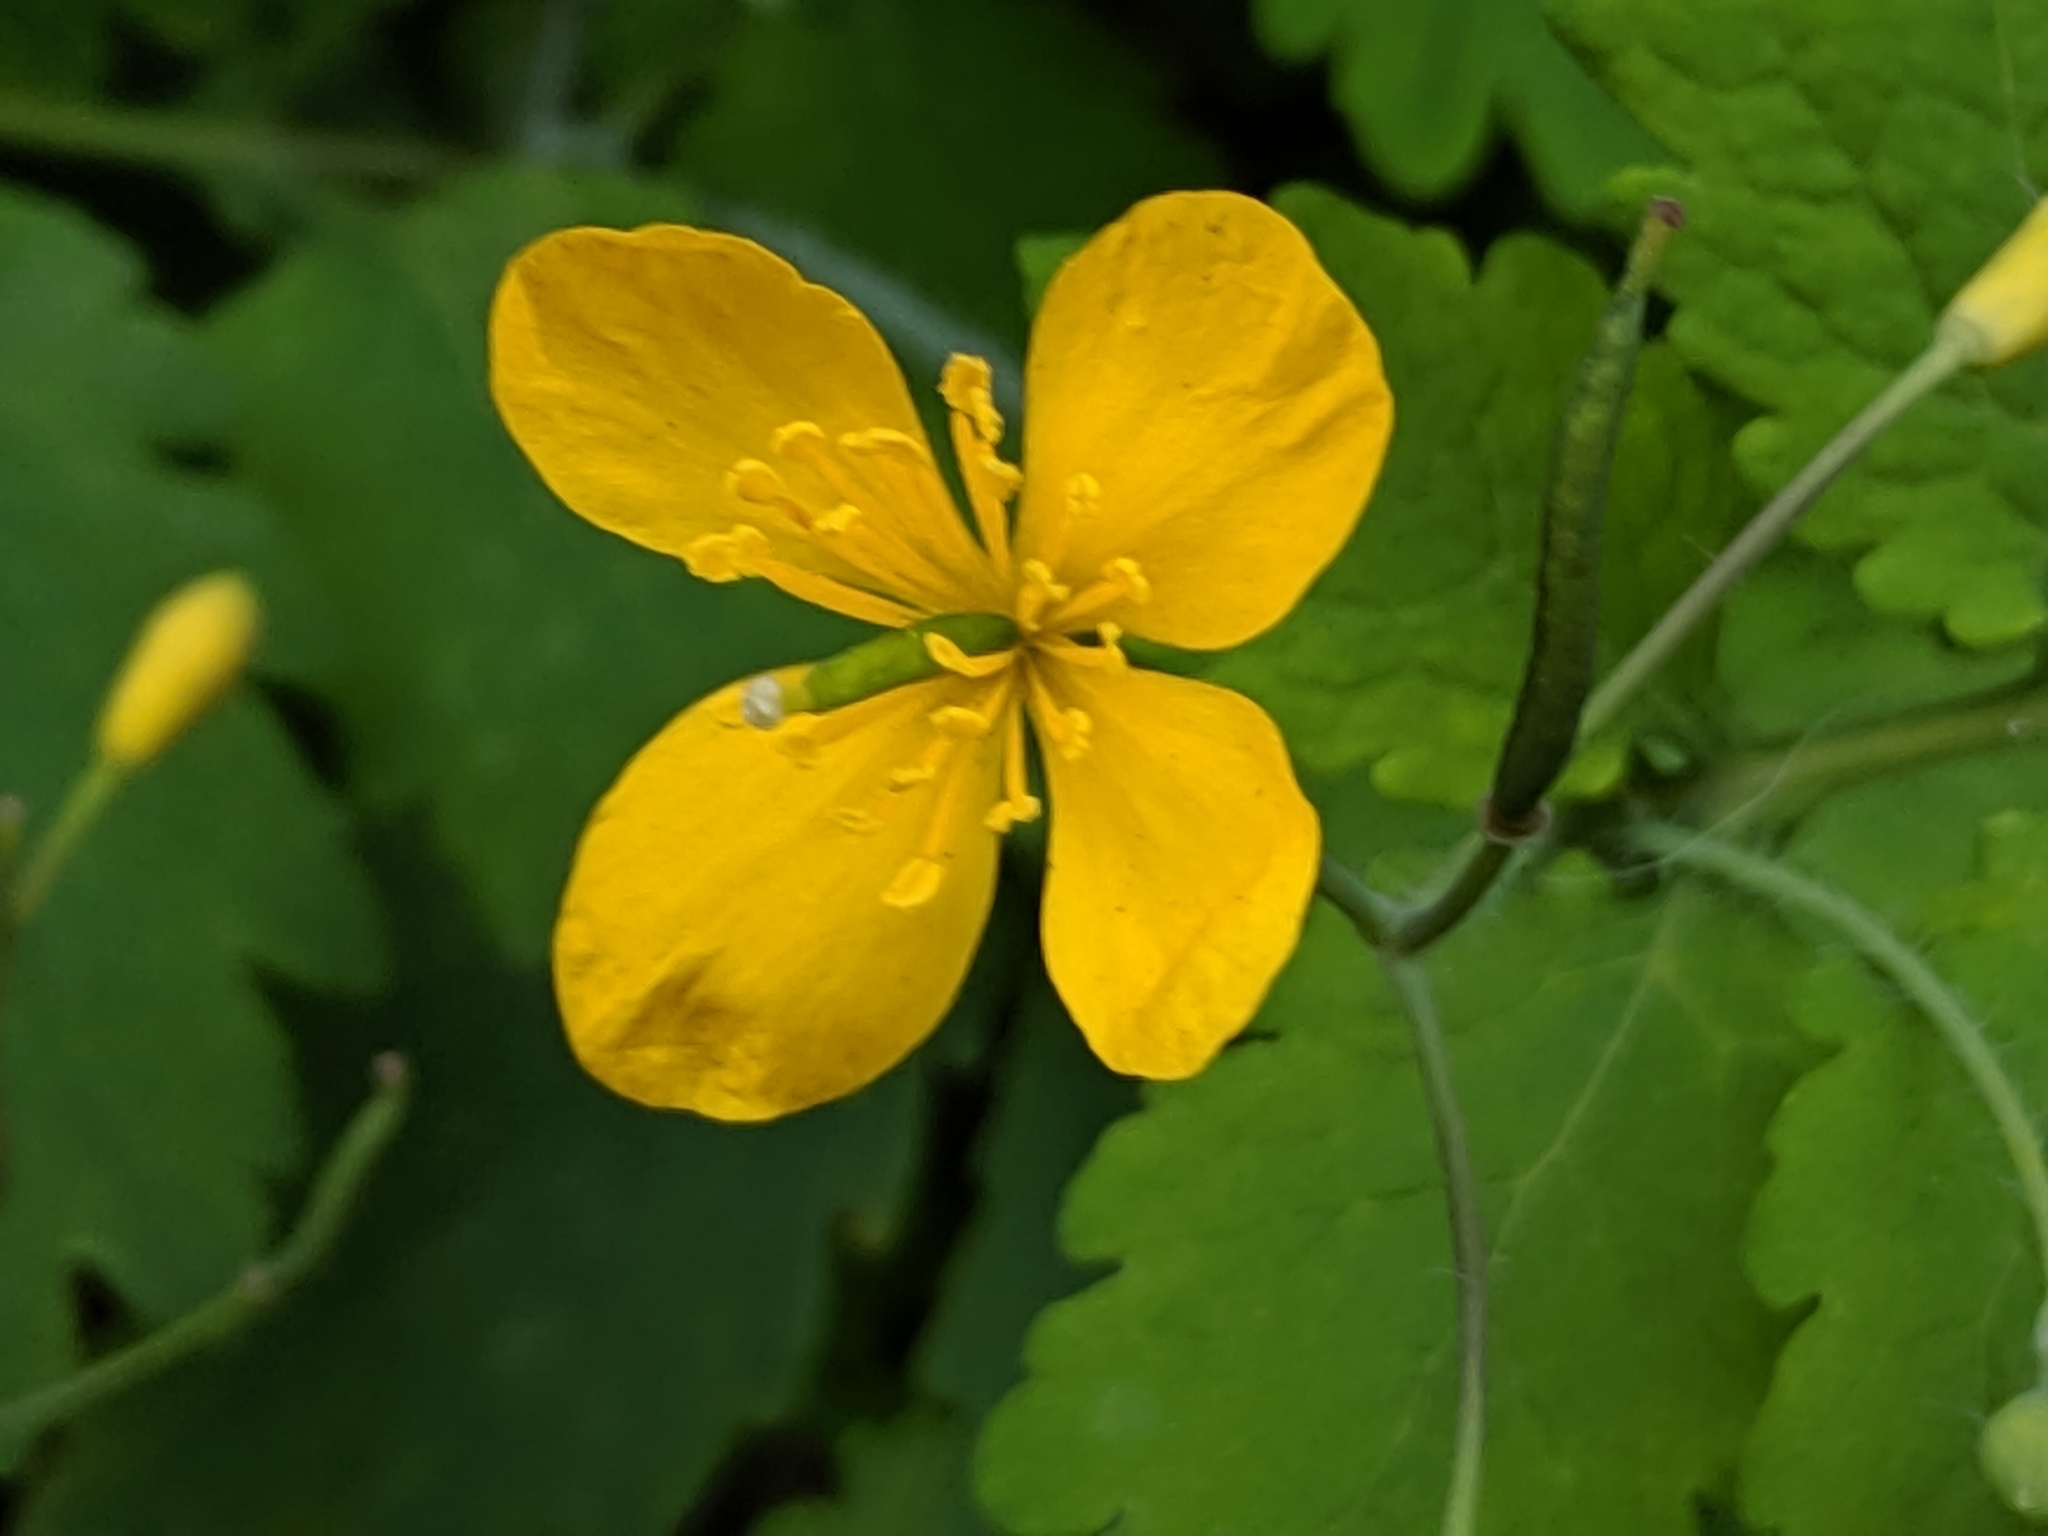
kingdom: Plantae
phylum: Tracheophyta
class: Magnoliopsida
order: Ranunculales
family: Papaveraceae
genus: Chelidonium
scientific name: Chelidonium majus
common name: Greater celandine
